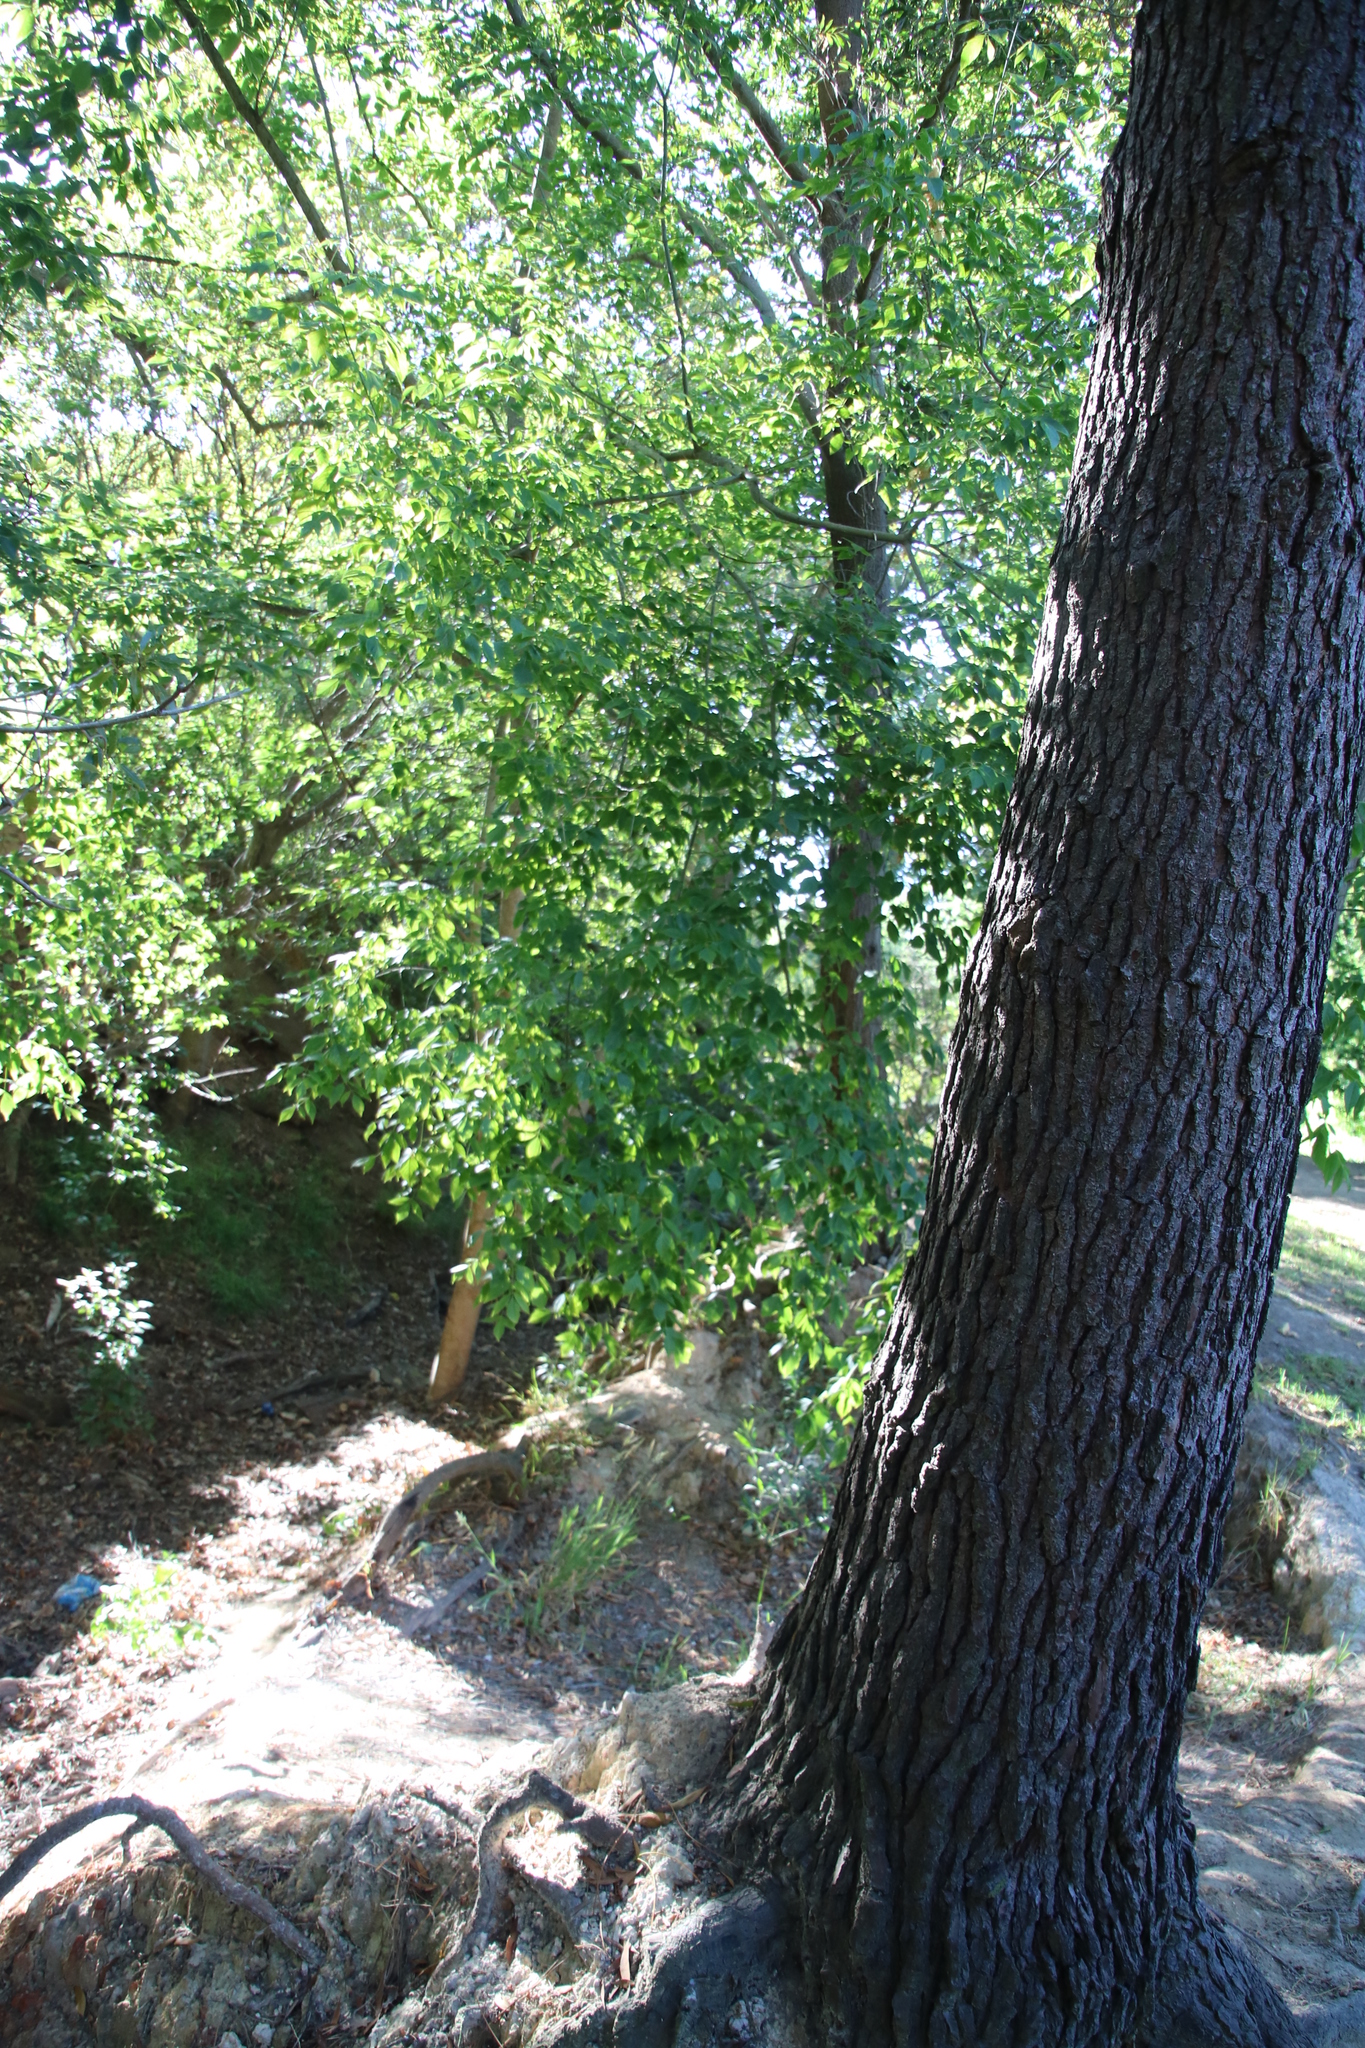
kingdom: Plantae
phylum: Tracheophyta
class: Magnoliopsida
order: Sapindales
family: Sapindaceae
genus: Acer
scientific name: Acer negundo
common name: Ashleaf maple
